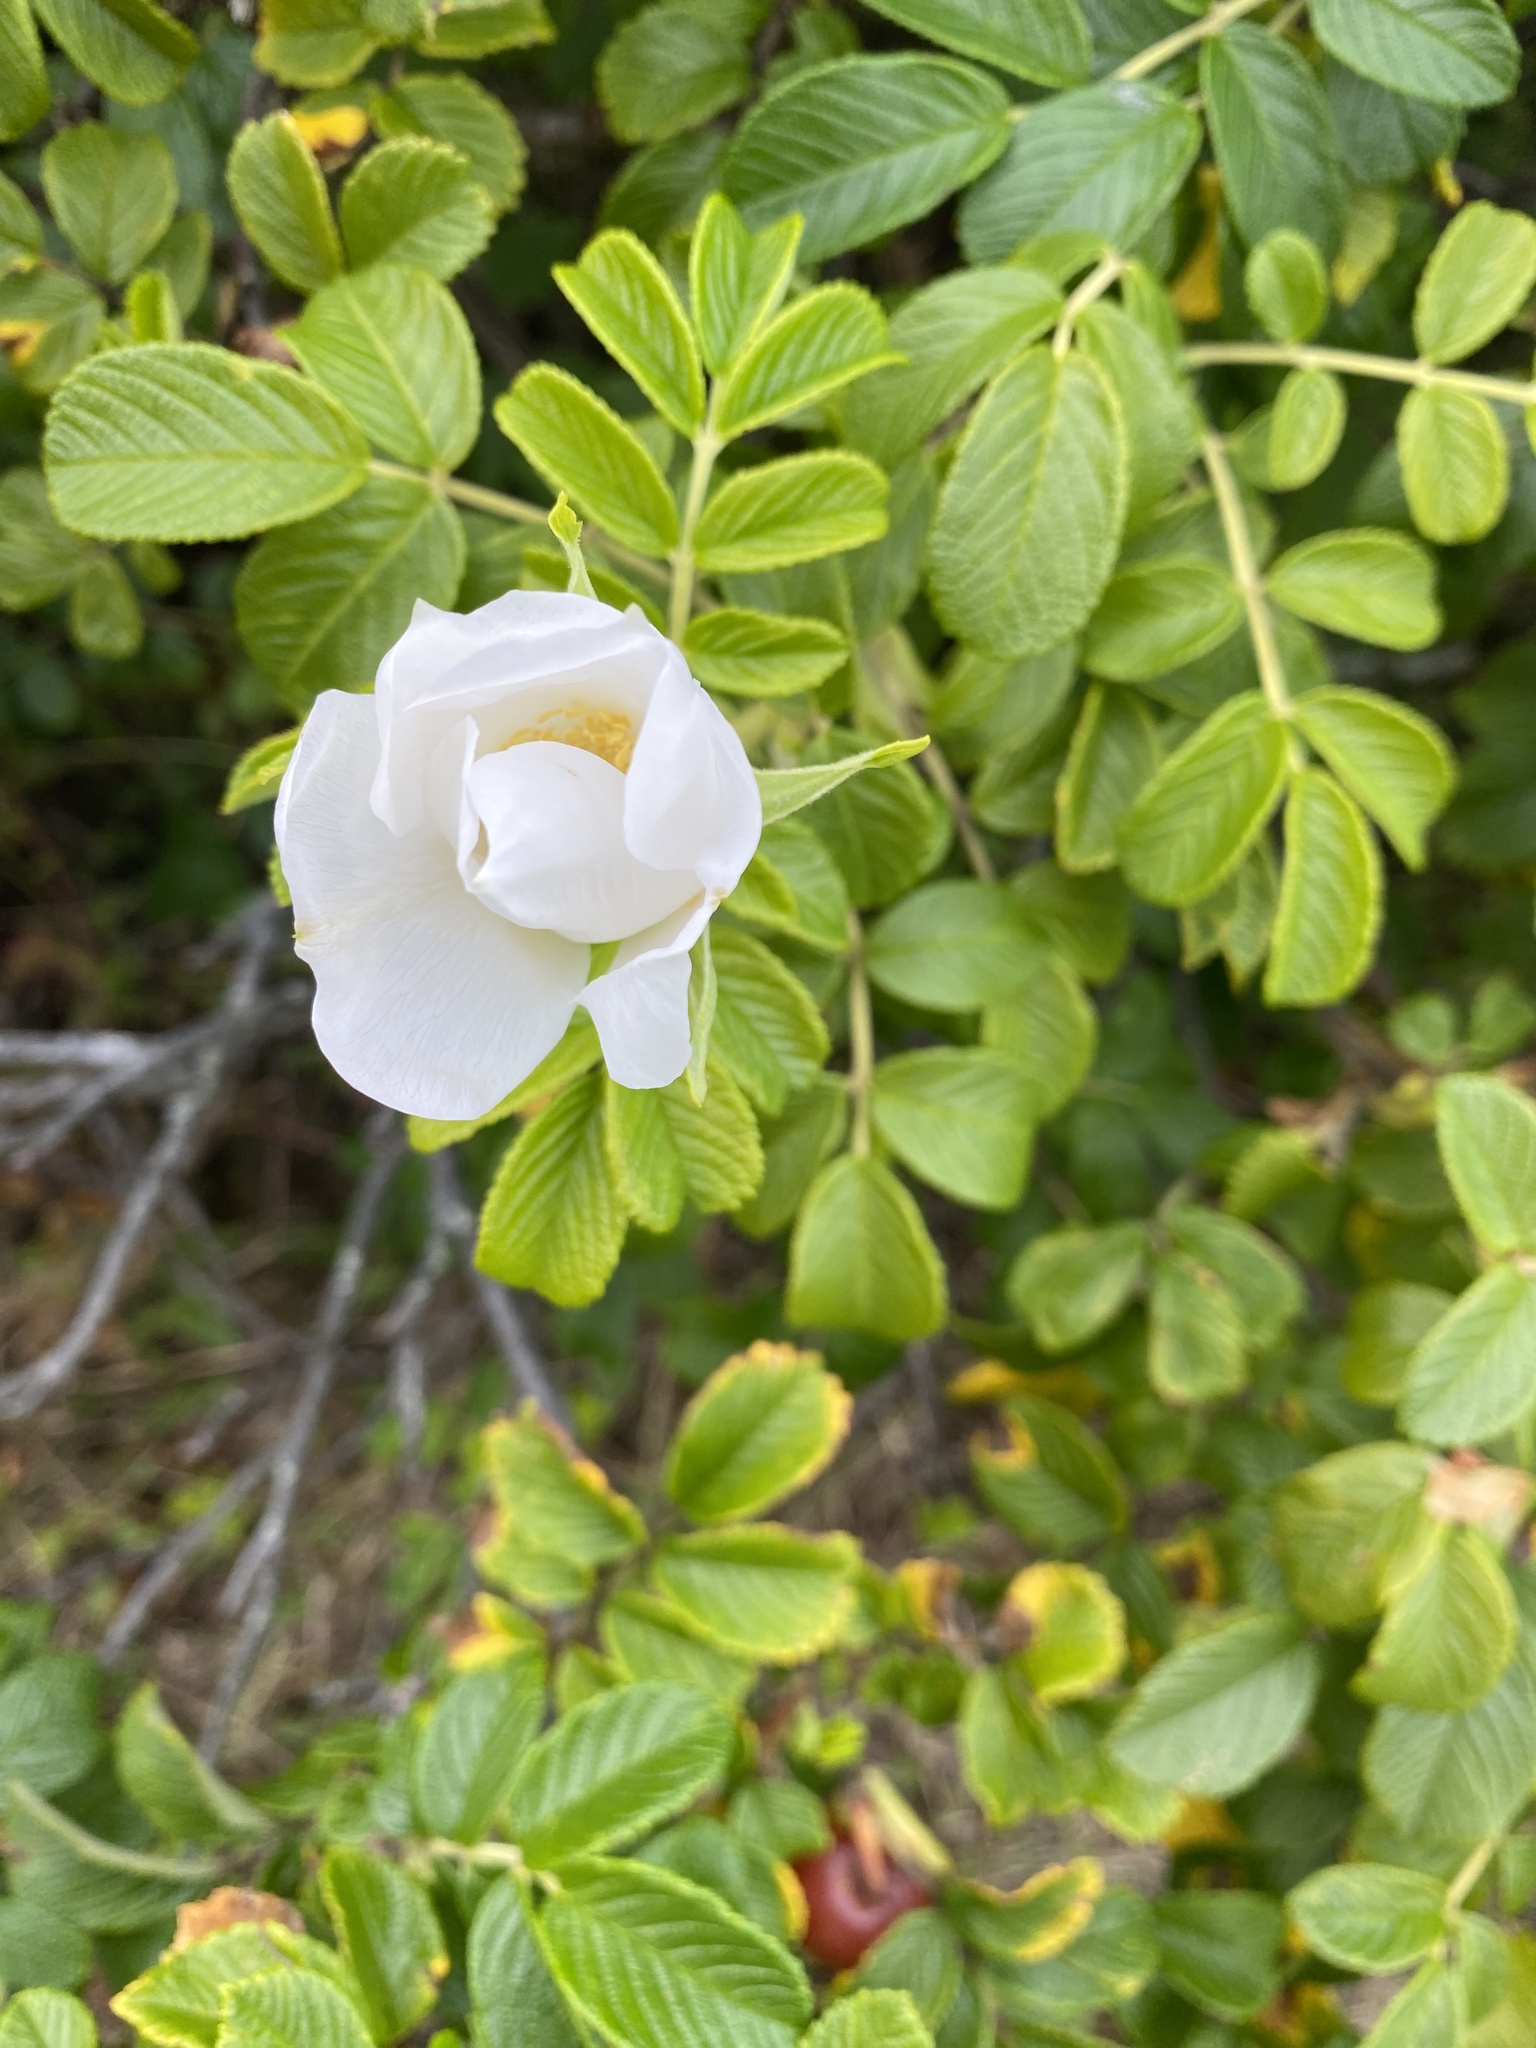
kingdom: Plantae
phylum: Tracheophyta
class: Magnoliopsida
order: Rosales
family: Rosaceae
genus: Rosa
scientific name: Rosa rugosa
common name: Japanese rose
